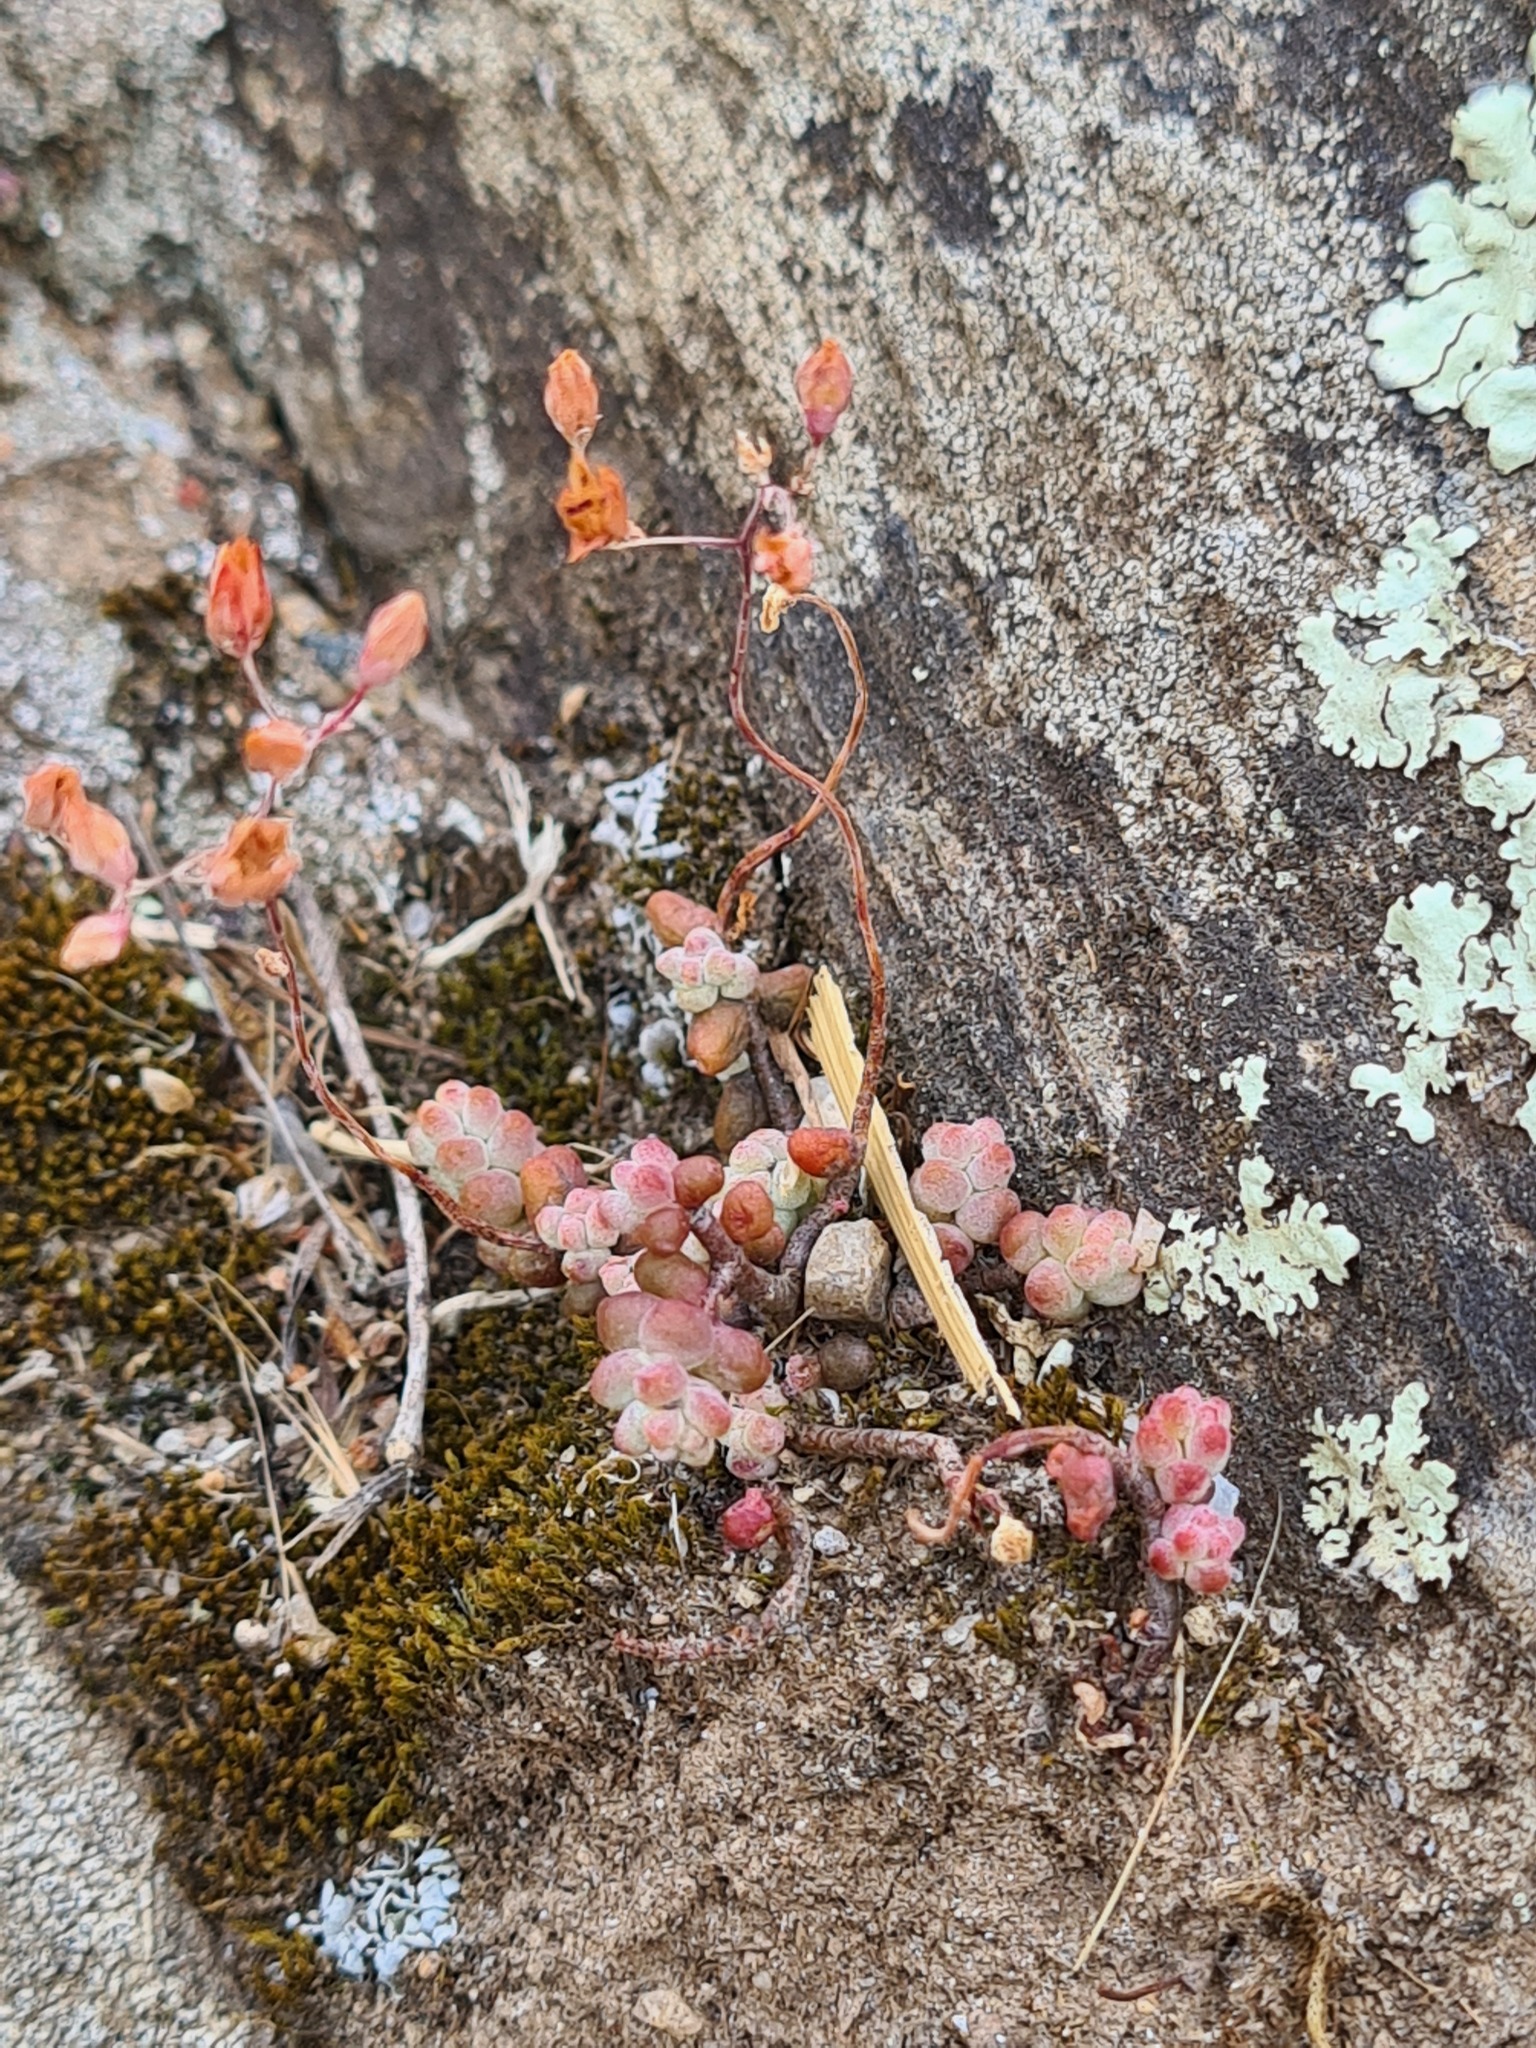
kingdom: Plantae
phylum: Tracheophyta
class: Magnoliopsida
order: Saxifragales
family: Crassulaceae
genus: Sedum
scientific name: Sedum brevifolium
